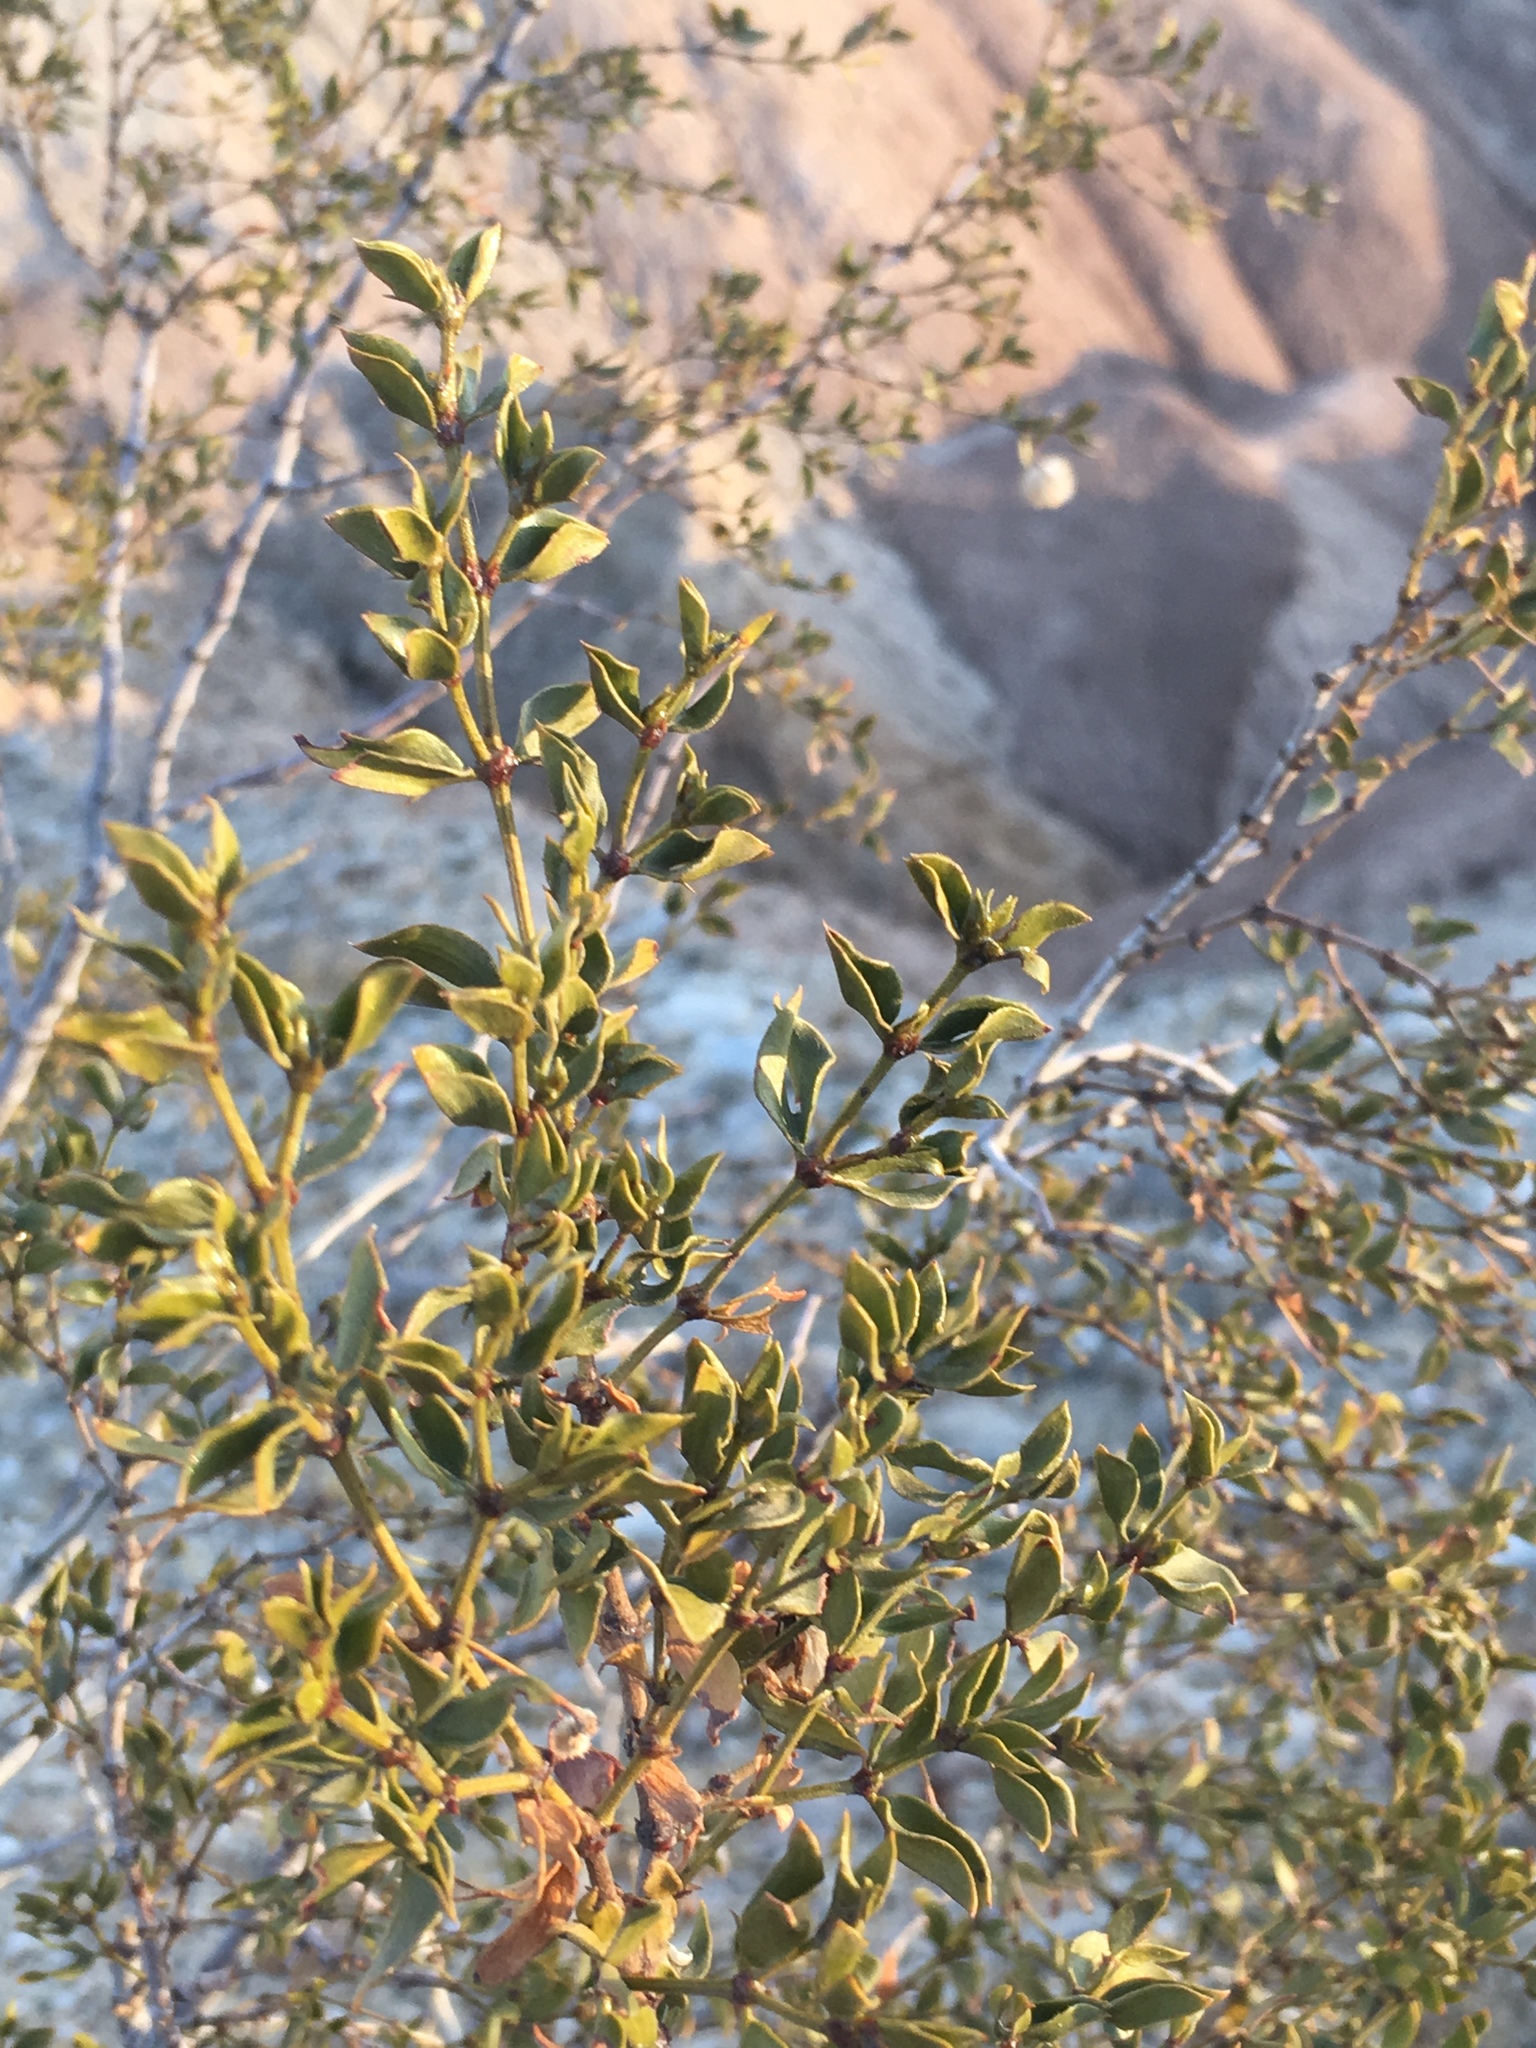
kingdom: Plantae
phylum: Tracheophyta
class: Magnoliopsida
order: Zygophyllales
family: Zygophyllaceae
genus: Larrea
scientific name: Larrea tridentata
